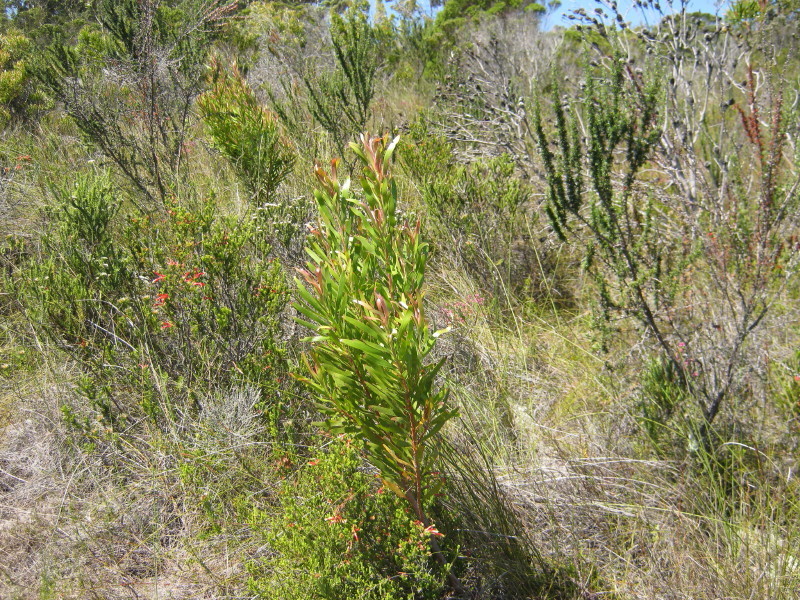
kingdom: Plantae
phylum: Tracheophyta
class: Magnoliopsida
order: Proteales
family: Proteaceae
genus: Leucadendron
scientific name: Leucadendron eucalyptifolium
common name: Gum-leaved conebush
